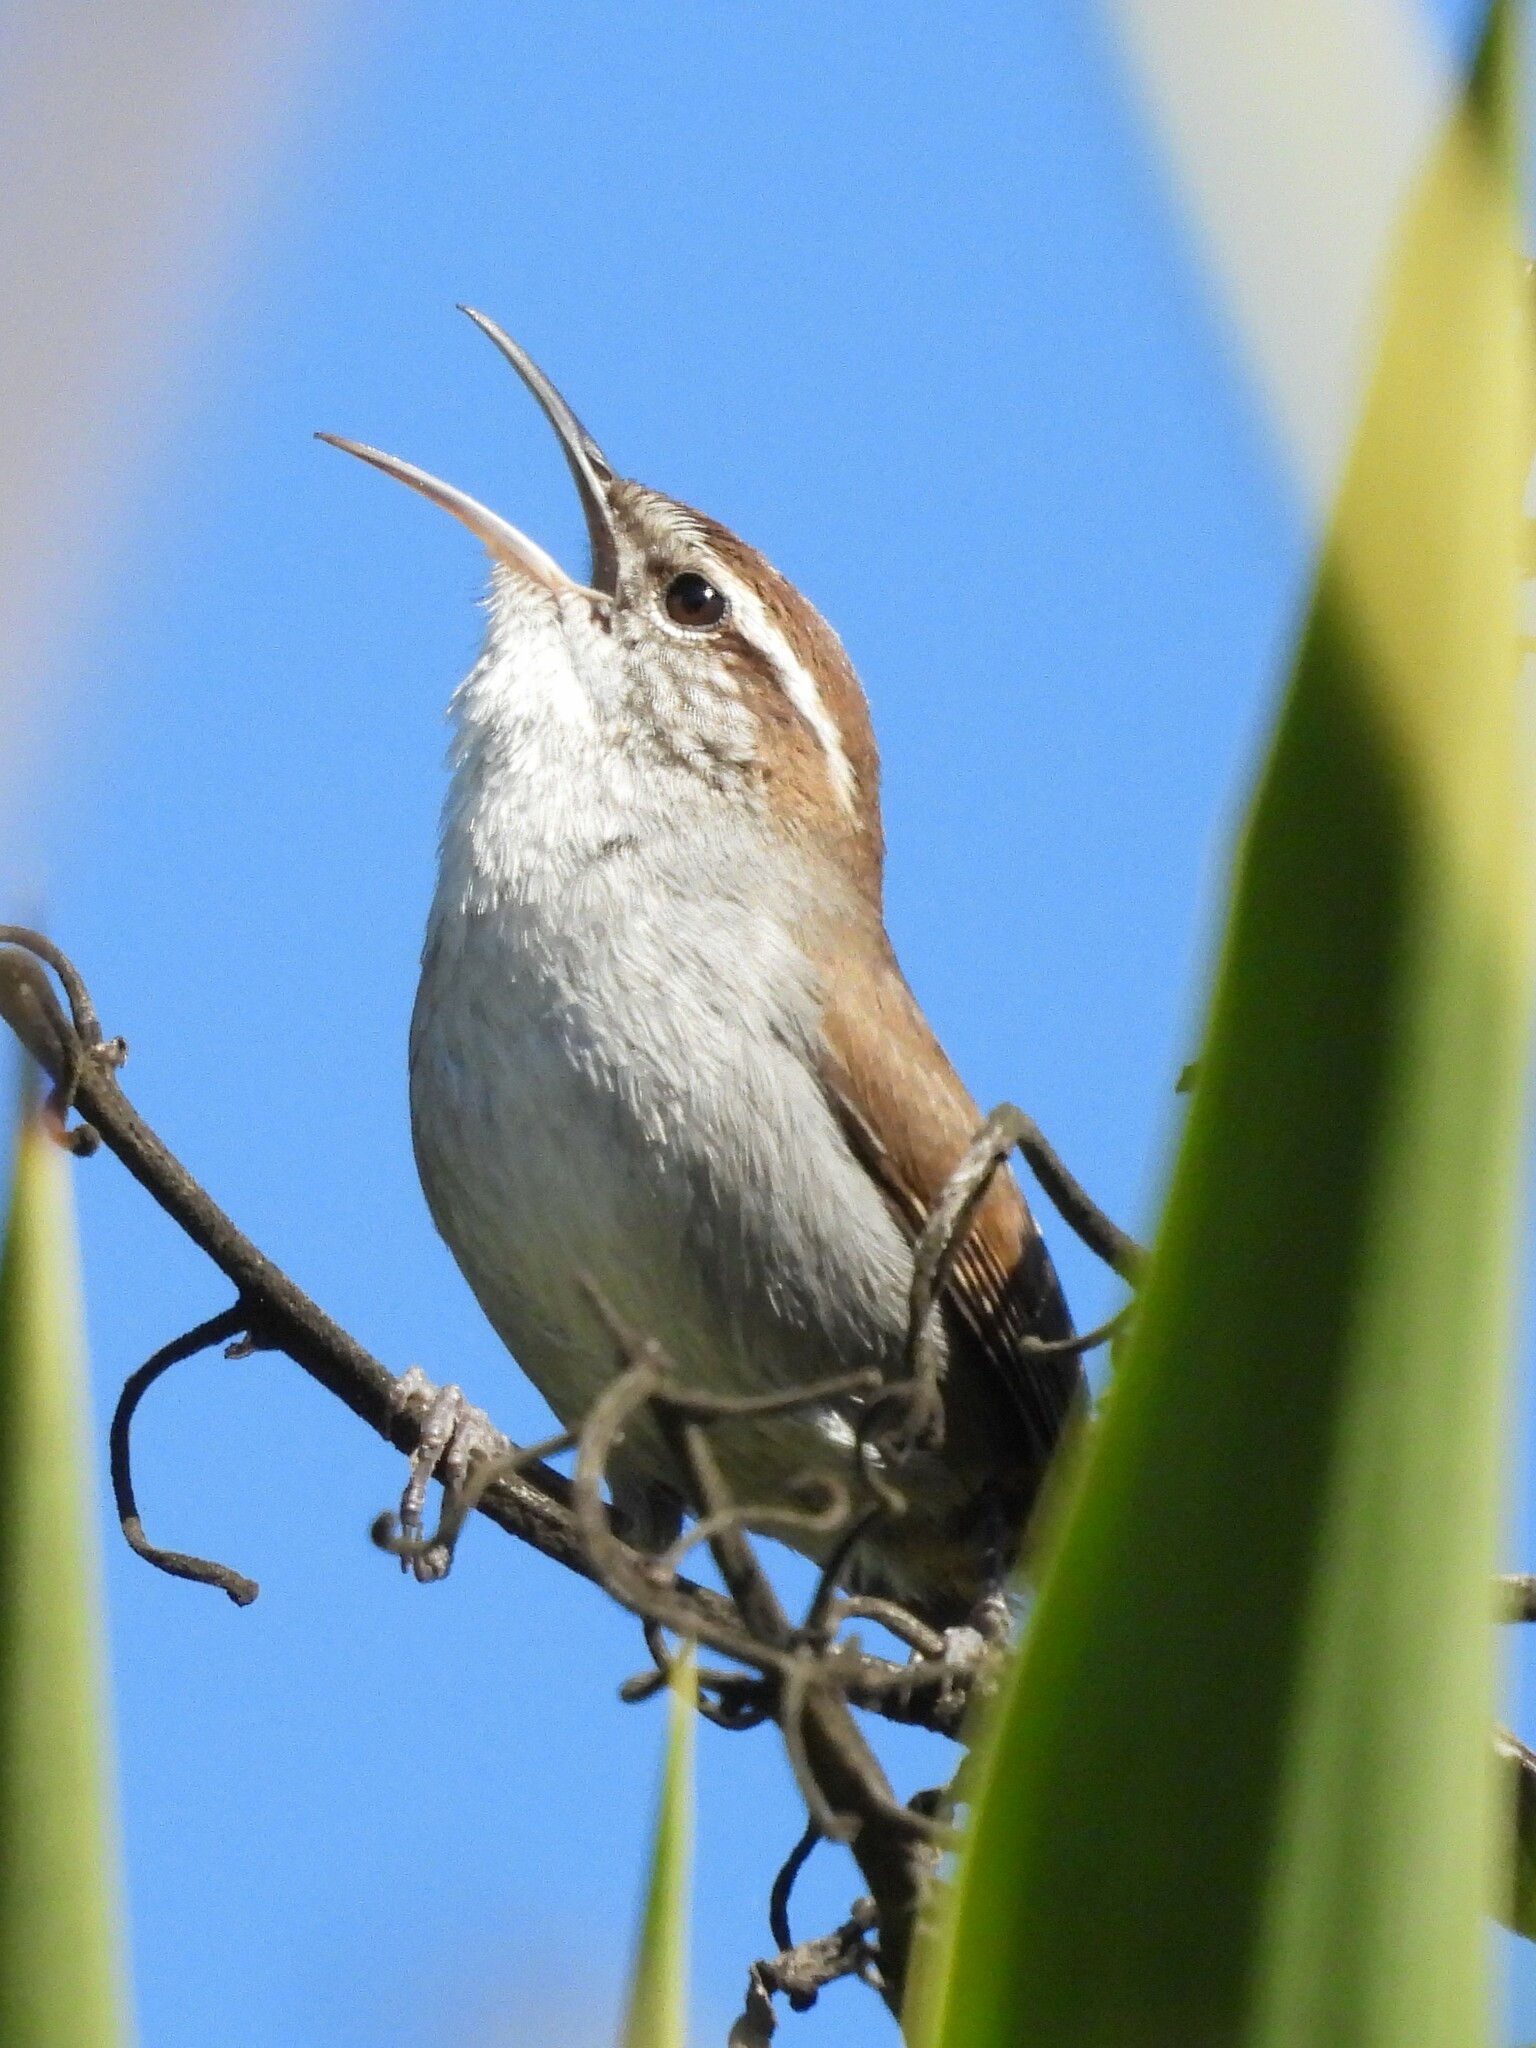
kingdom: Animalia
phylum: Chordata
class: Aves
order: Passeriformes
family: Troglodytidae
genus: Thryomanes
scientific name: Thryomanes bewickii
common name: Bewick's wren
